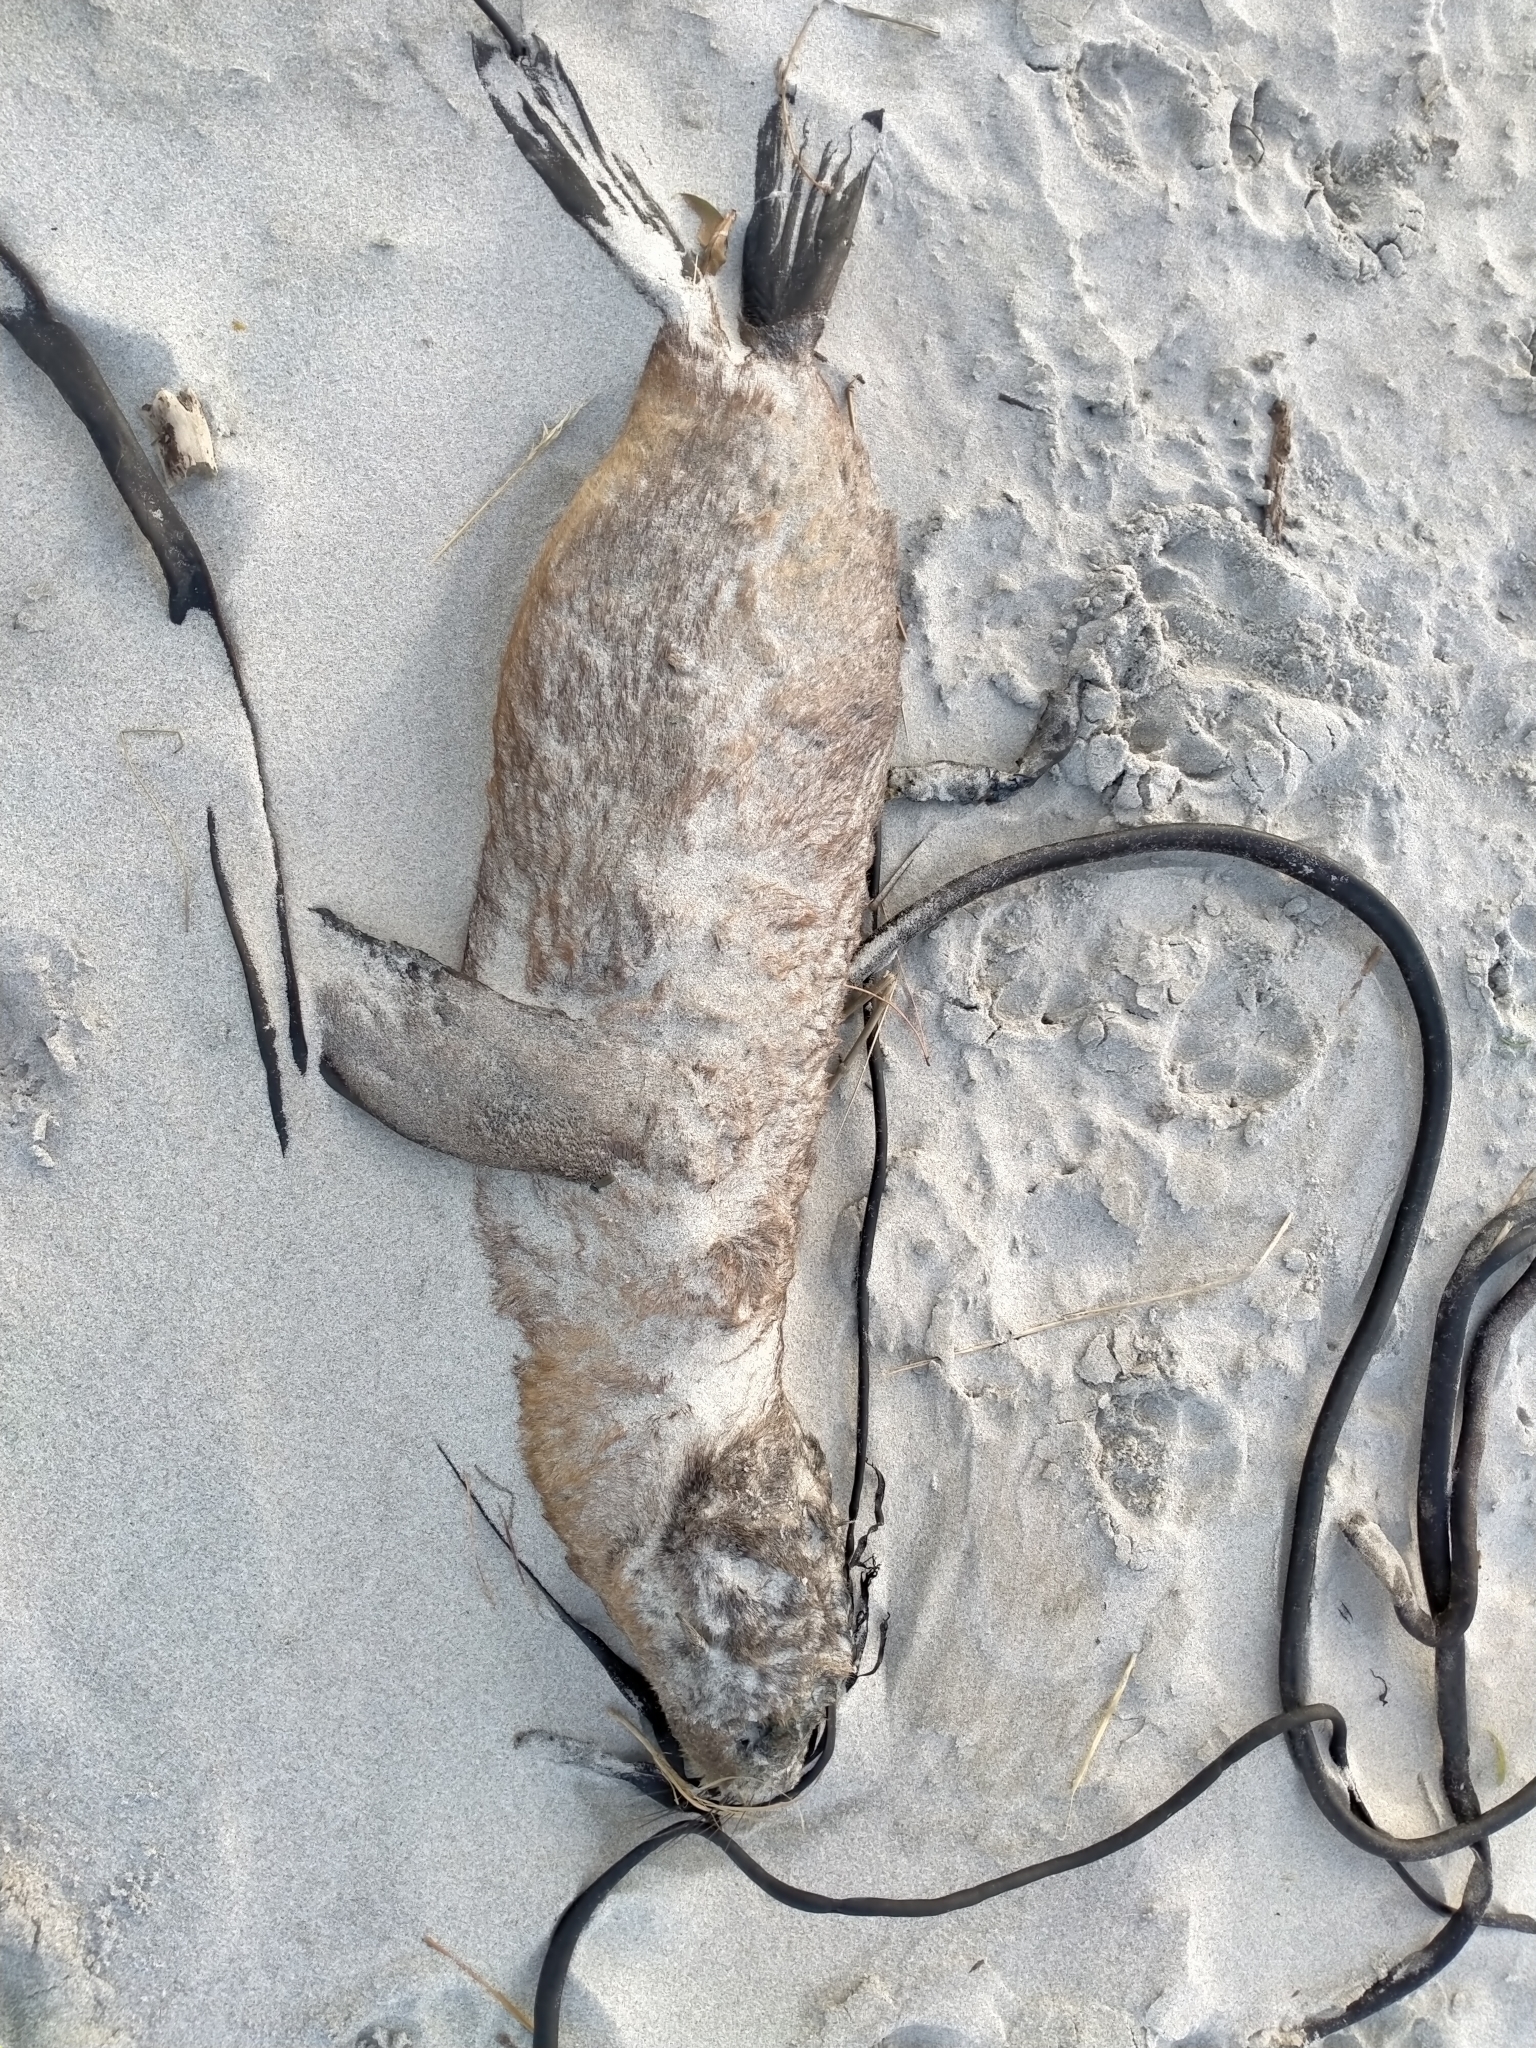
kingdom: Animalia
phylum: Chordata
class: Mammalia
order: Carnivora
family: Otariidae
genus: Arctocephalus
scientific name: Arctocephalus forsteri
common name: New zealand fur seal
